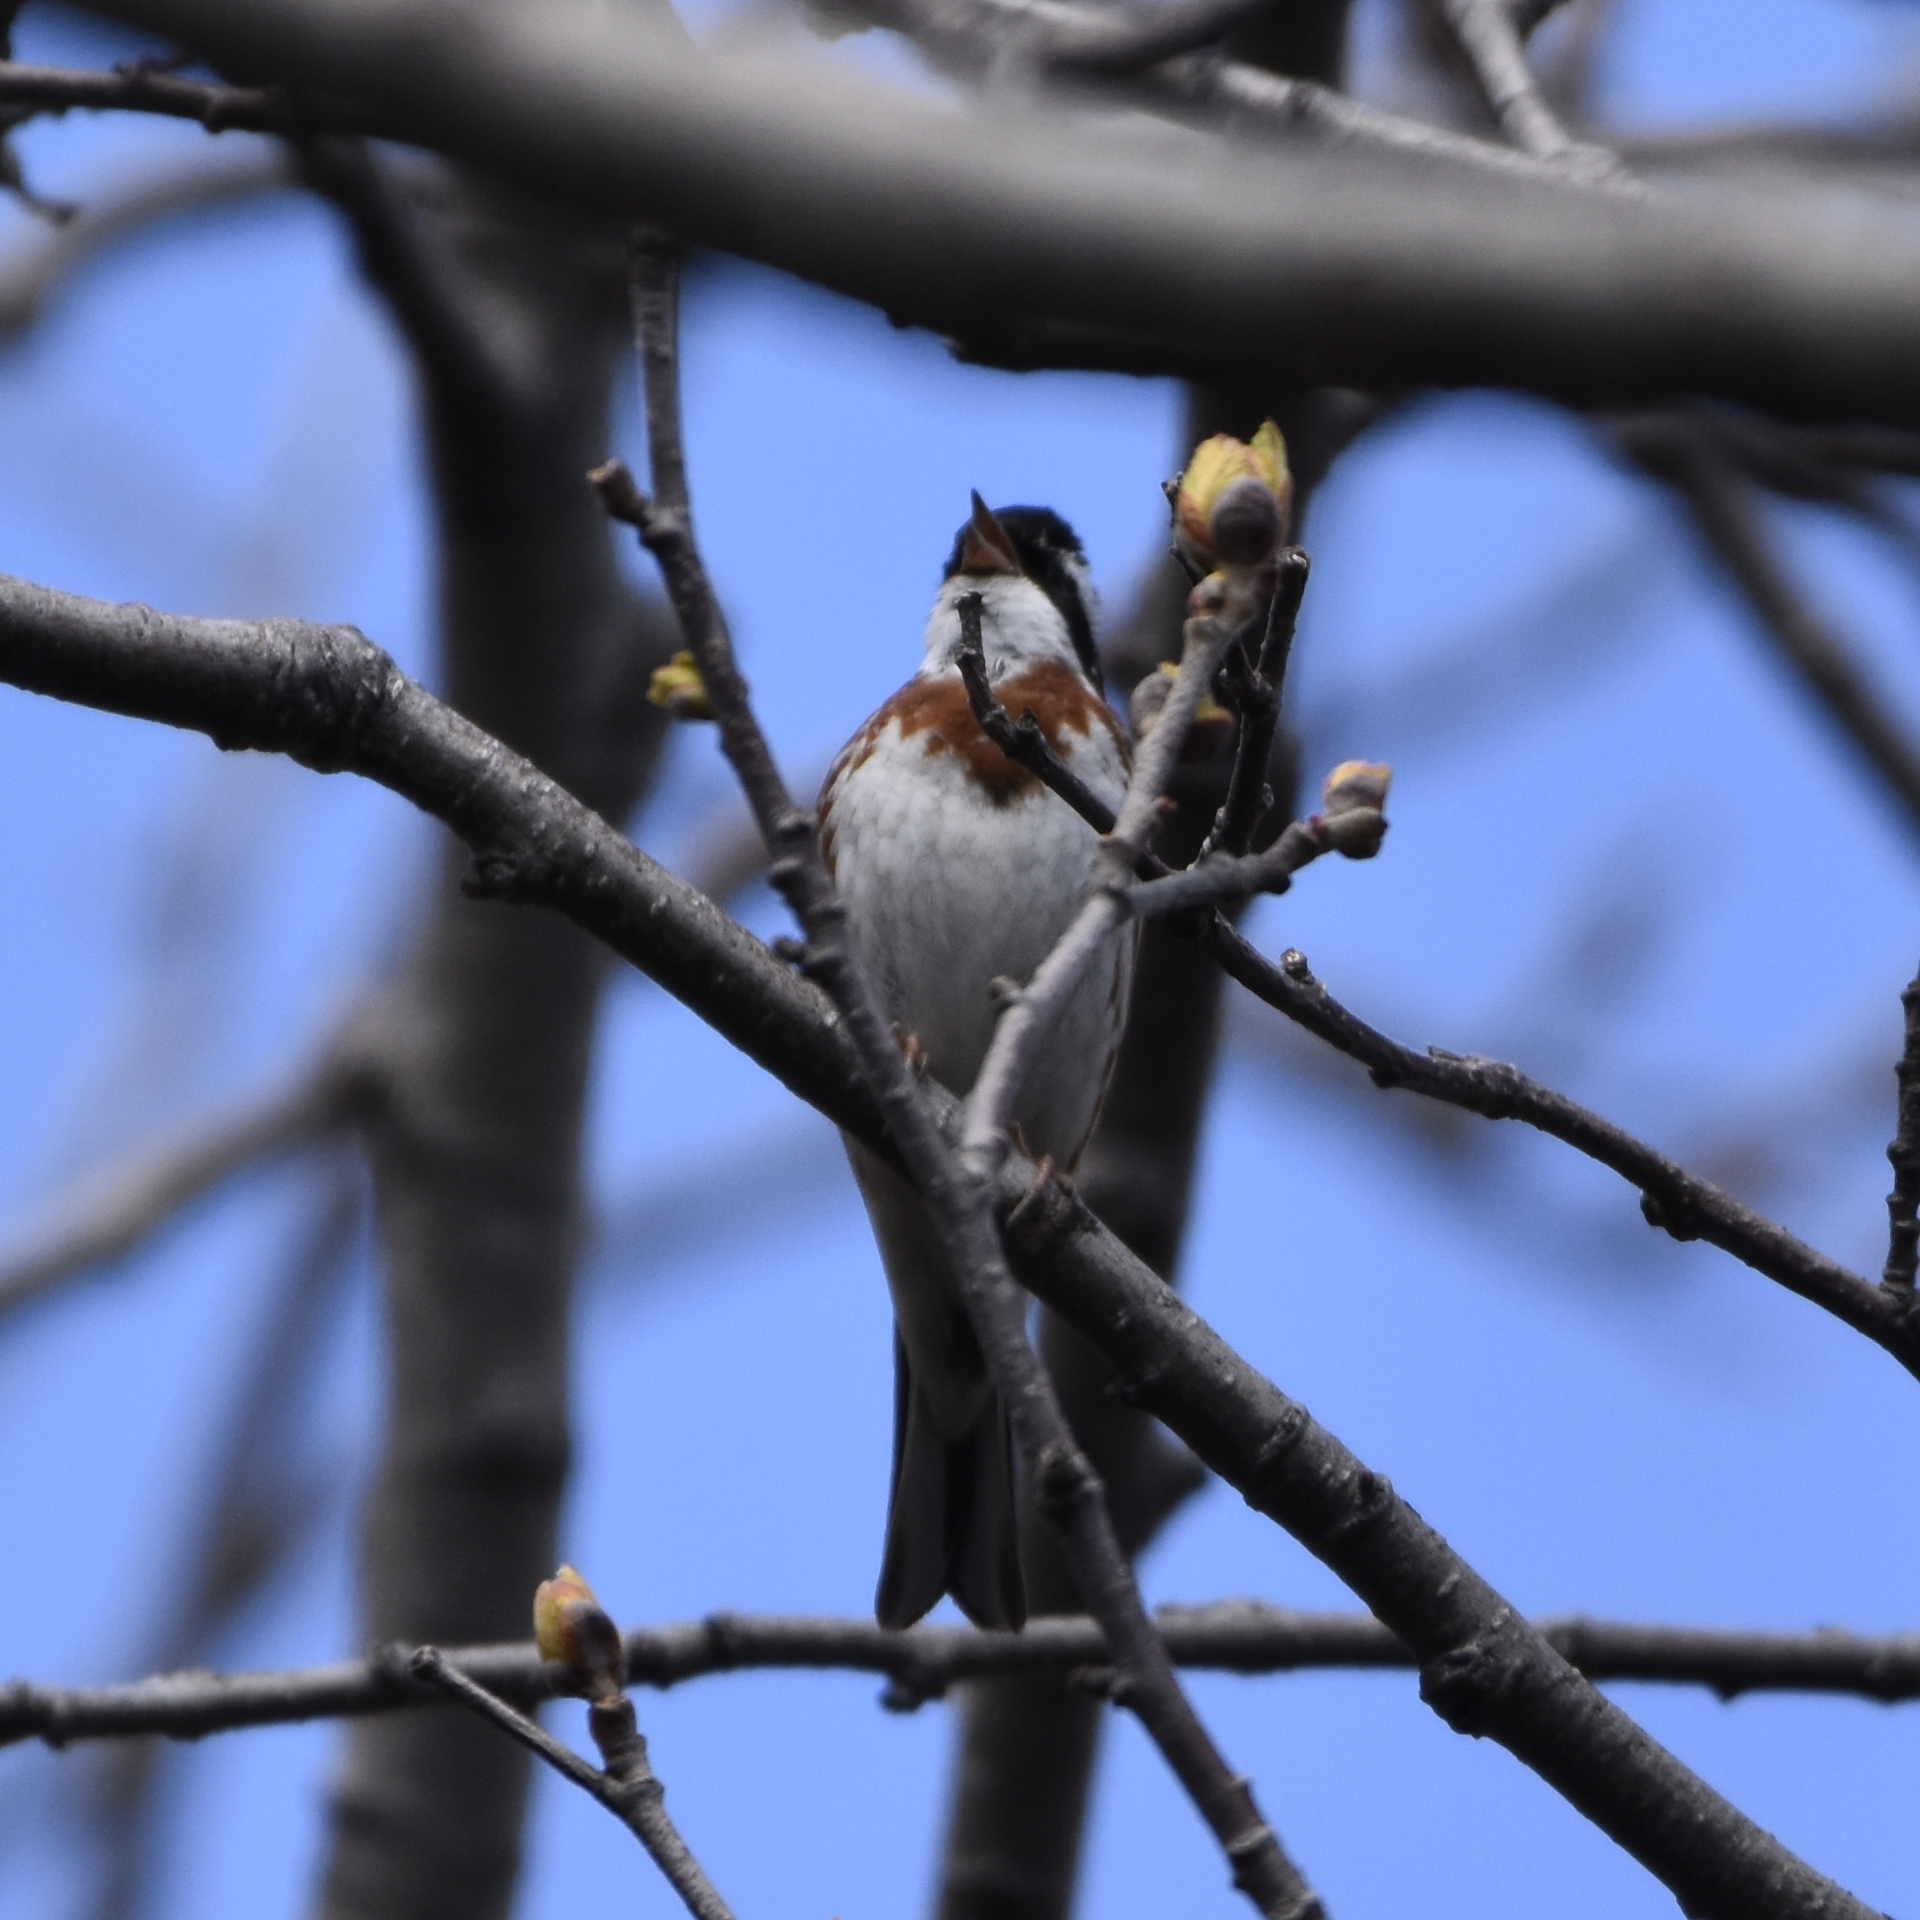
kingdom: Animalia
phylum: Chordata
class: Aves
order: Passeriformes
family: Emberizidae
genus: Emberiza
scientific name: Emberiza rustica
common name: Rustic bunting
